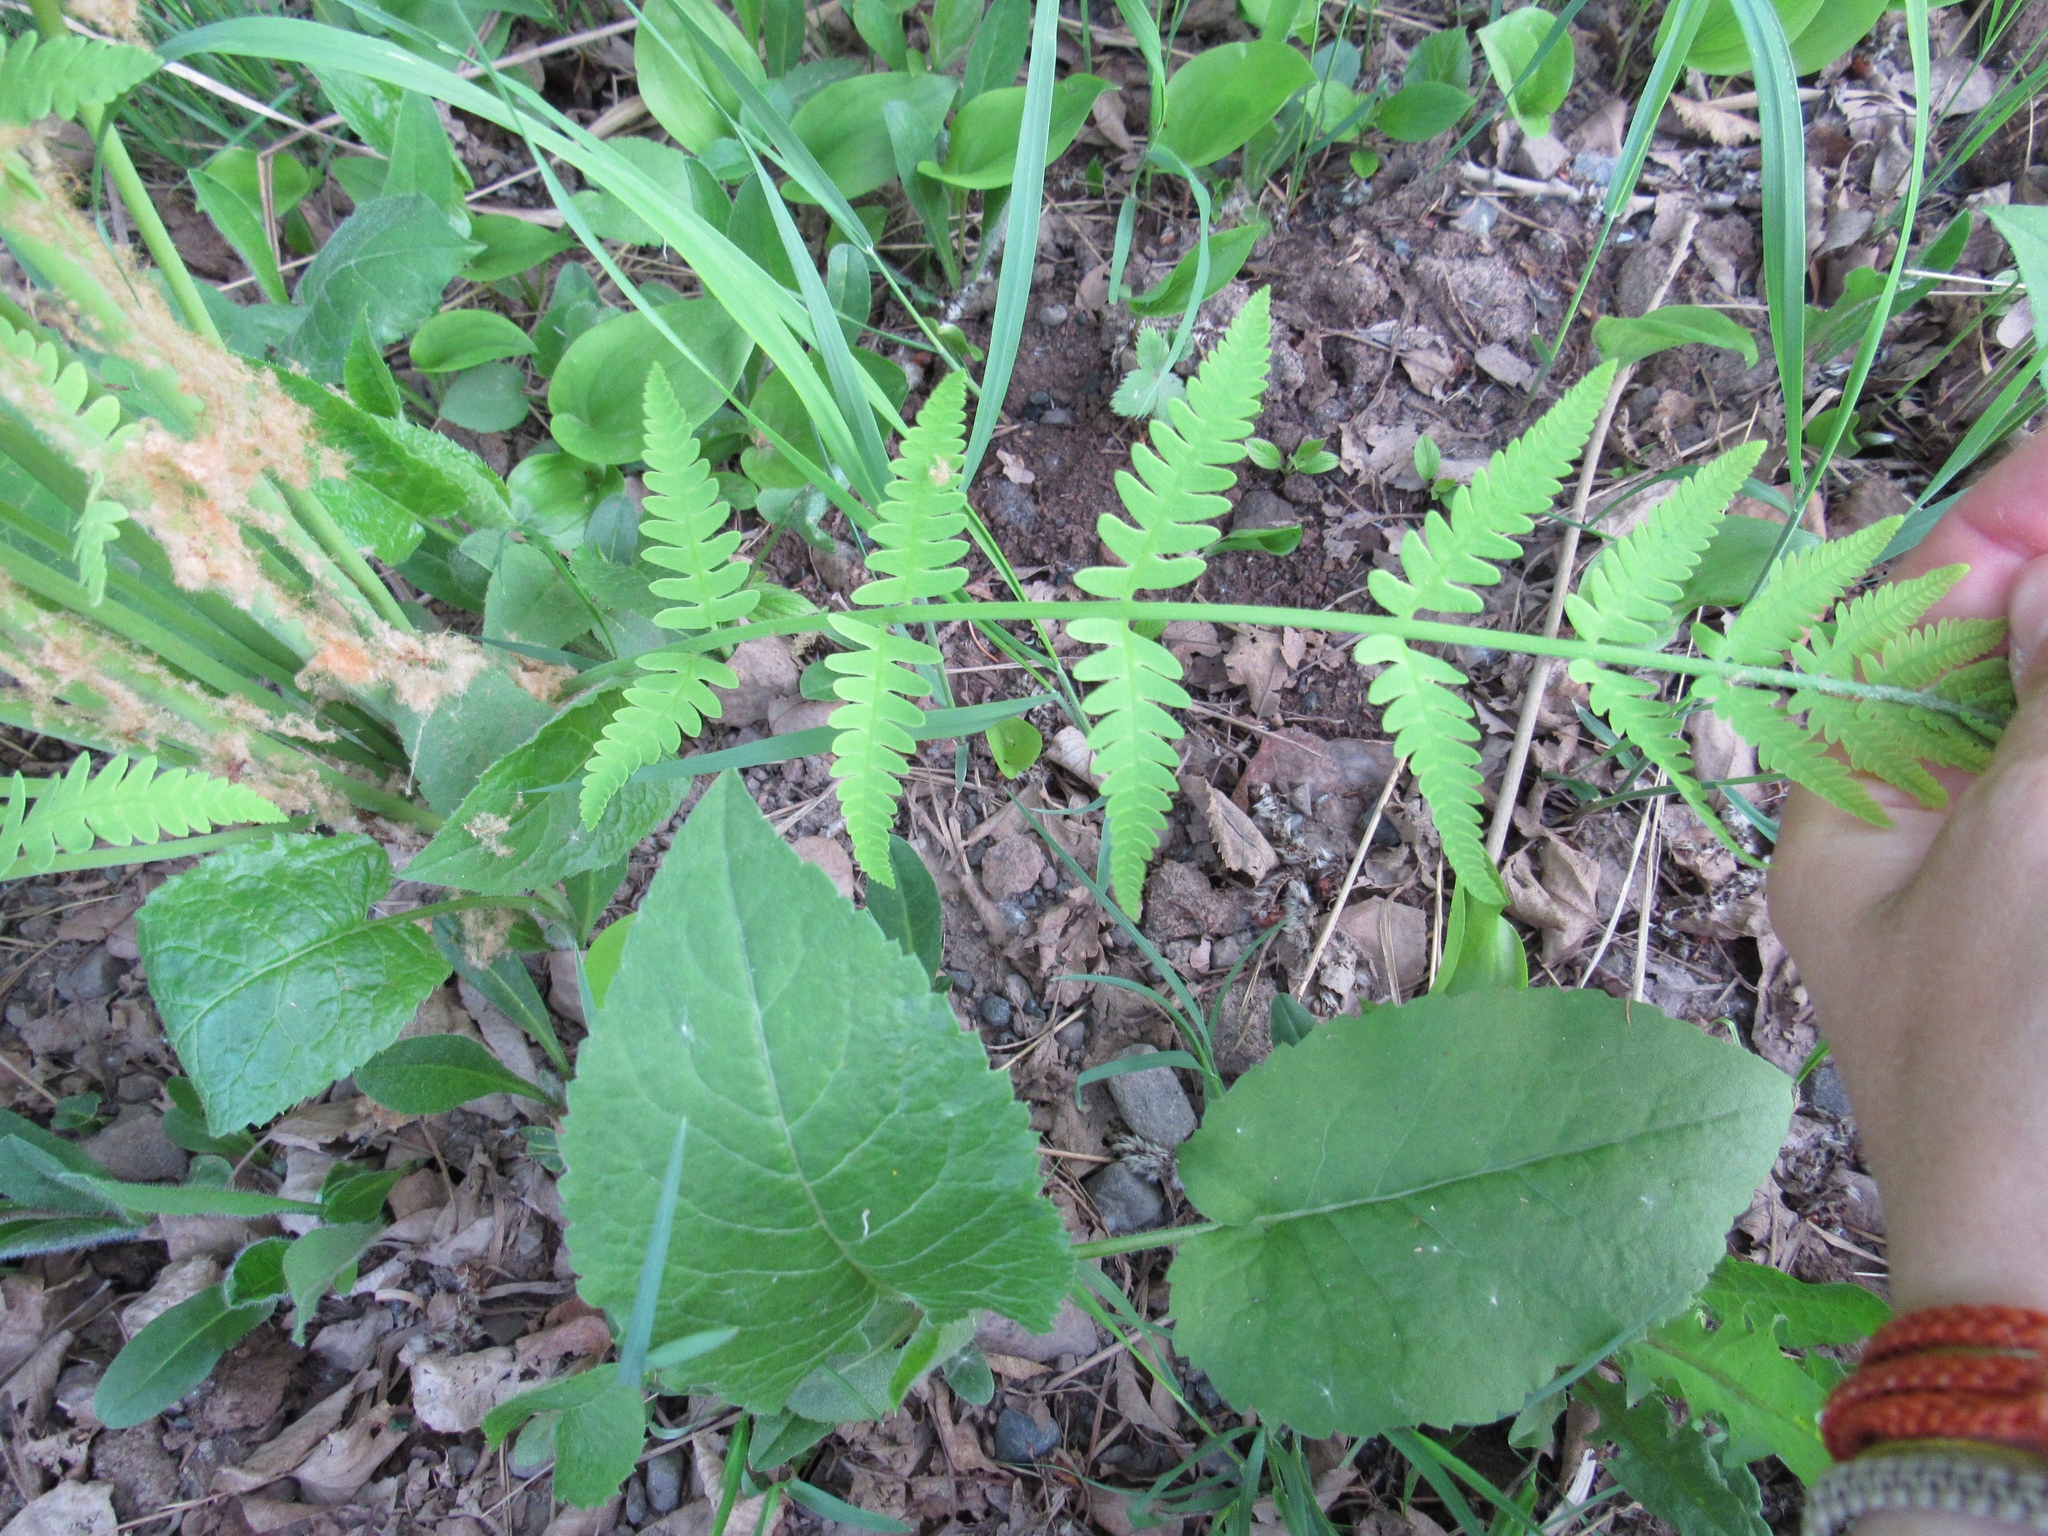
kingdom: Plantae
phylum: Tracheophyta
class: Polypodiopsida
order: Osmundales
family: Osmundaceae
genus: Claytosmunda
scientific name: Claytosmunda claytoniana
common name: Clayton's fern
